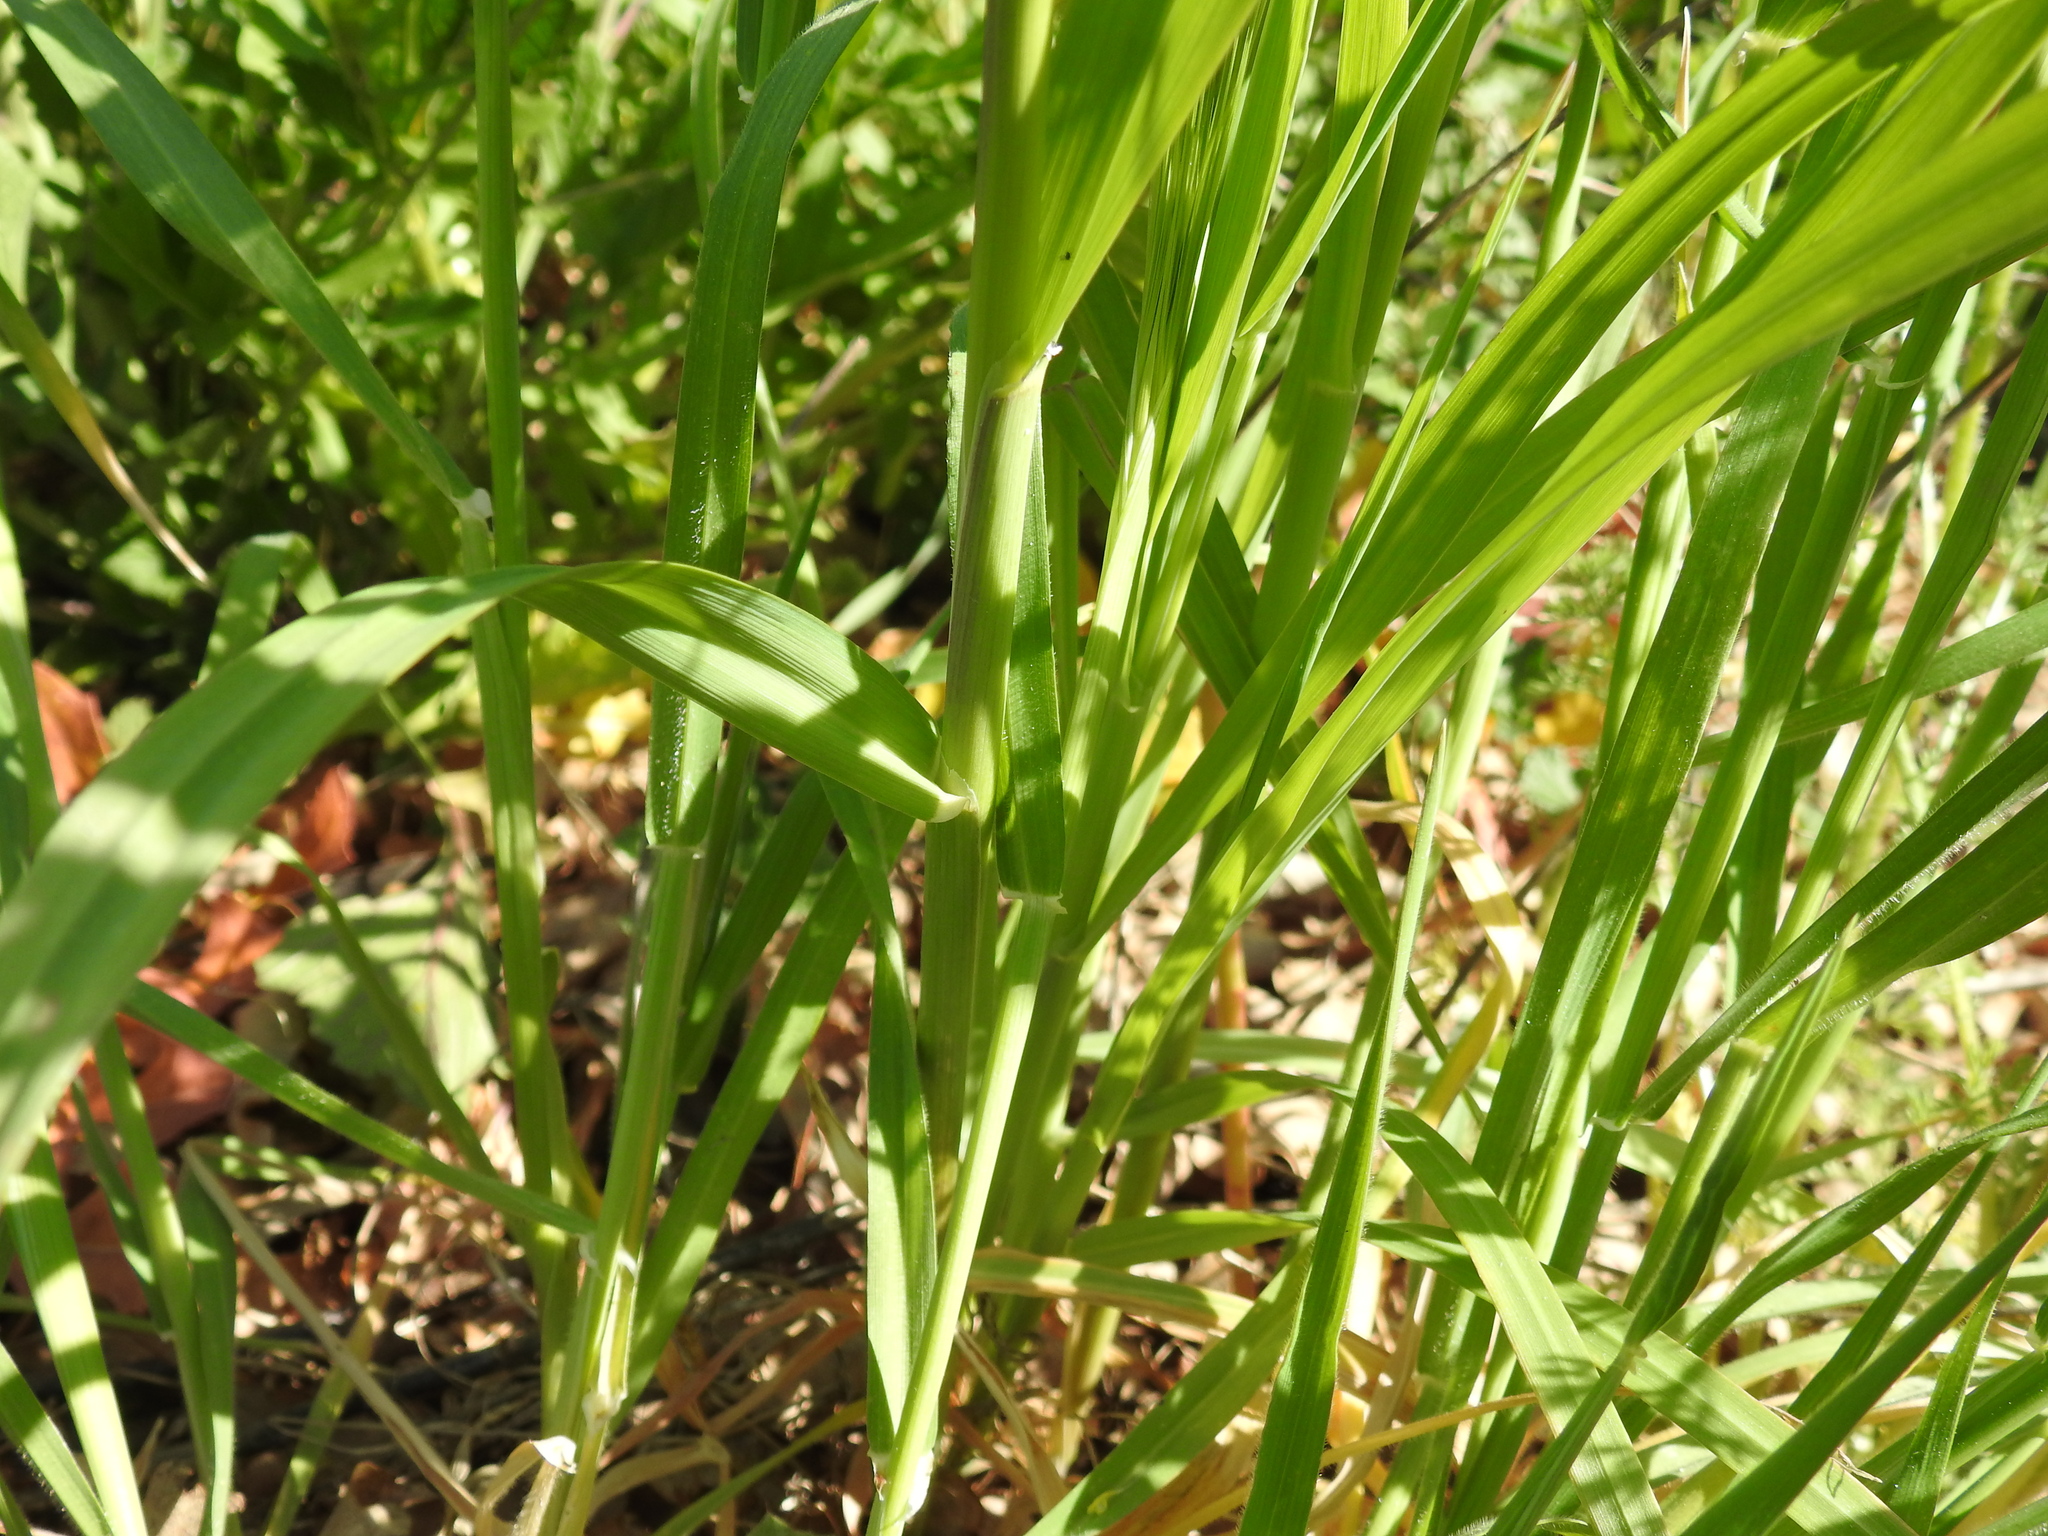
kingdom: Plantae
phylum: Tracheophyta
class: Liliopsida
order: Poales
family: Poaceae
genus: Hordeum
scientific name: Hordeum murinum
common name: Wall barley
